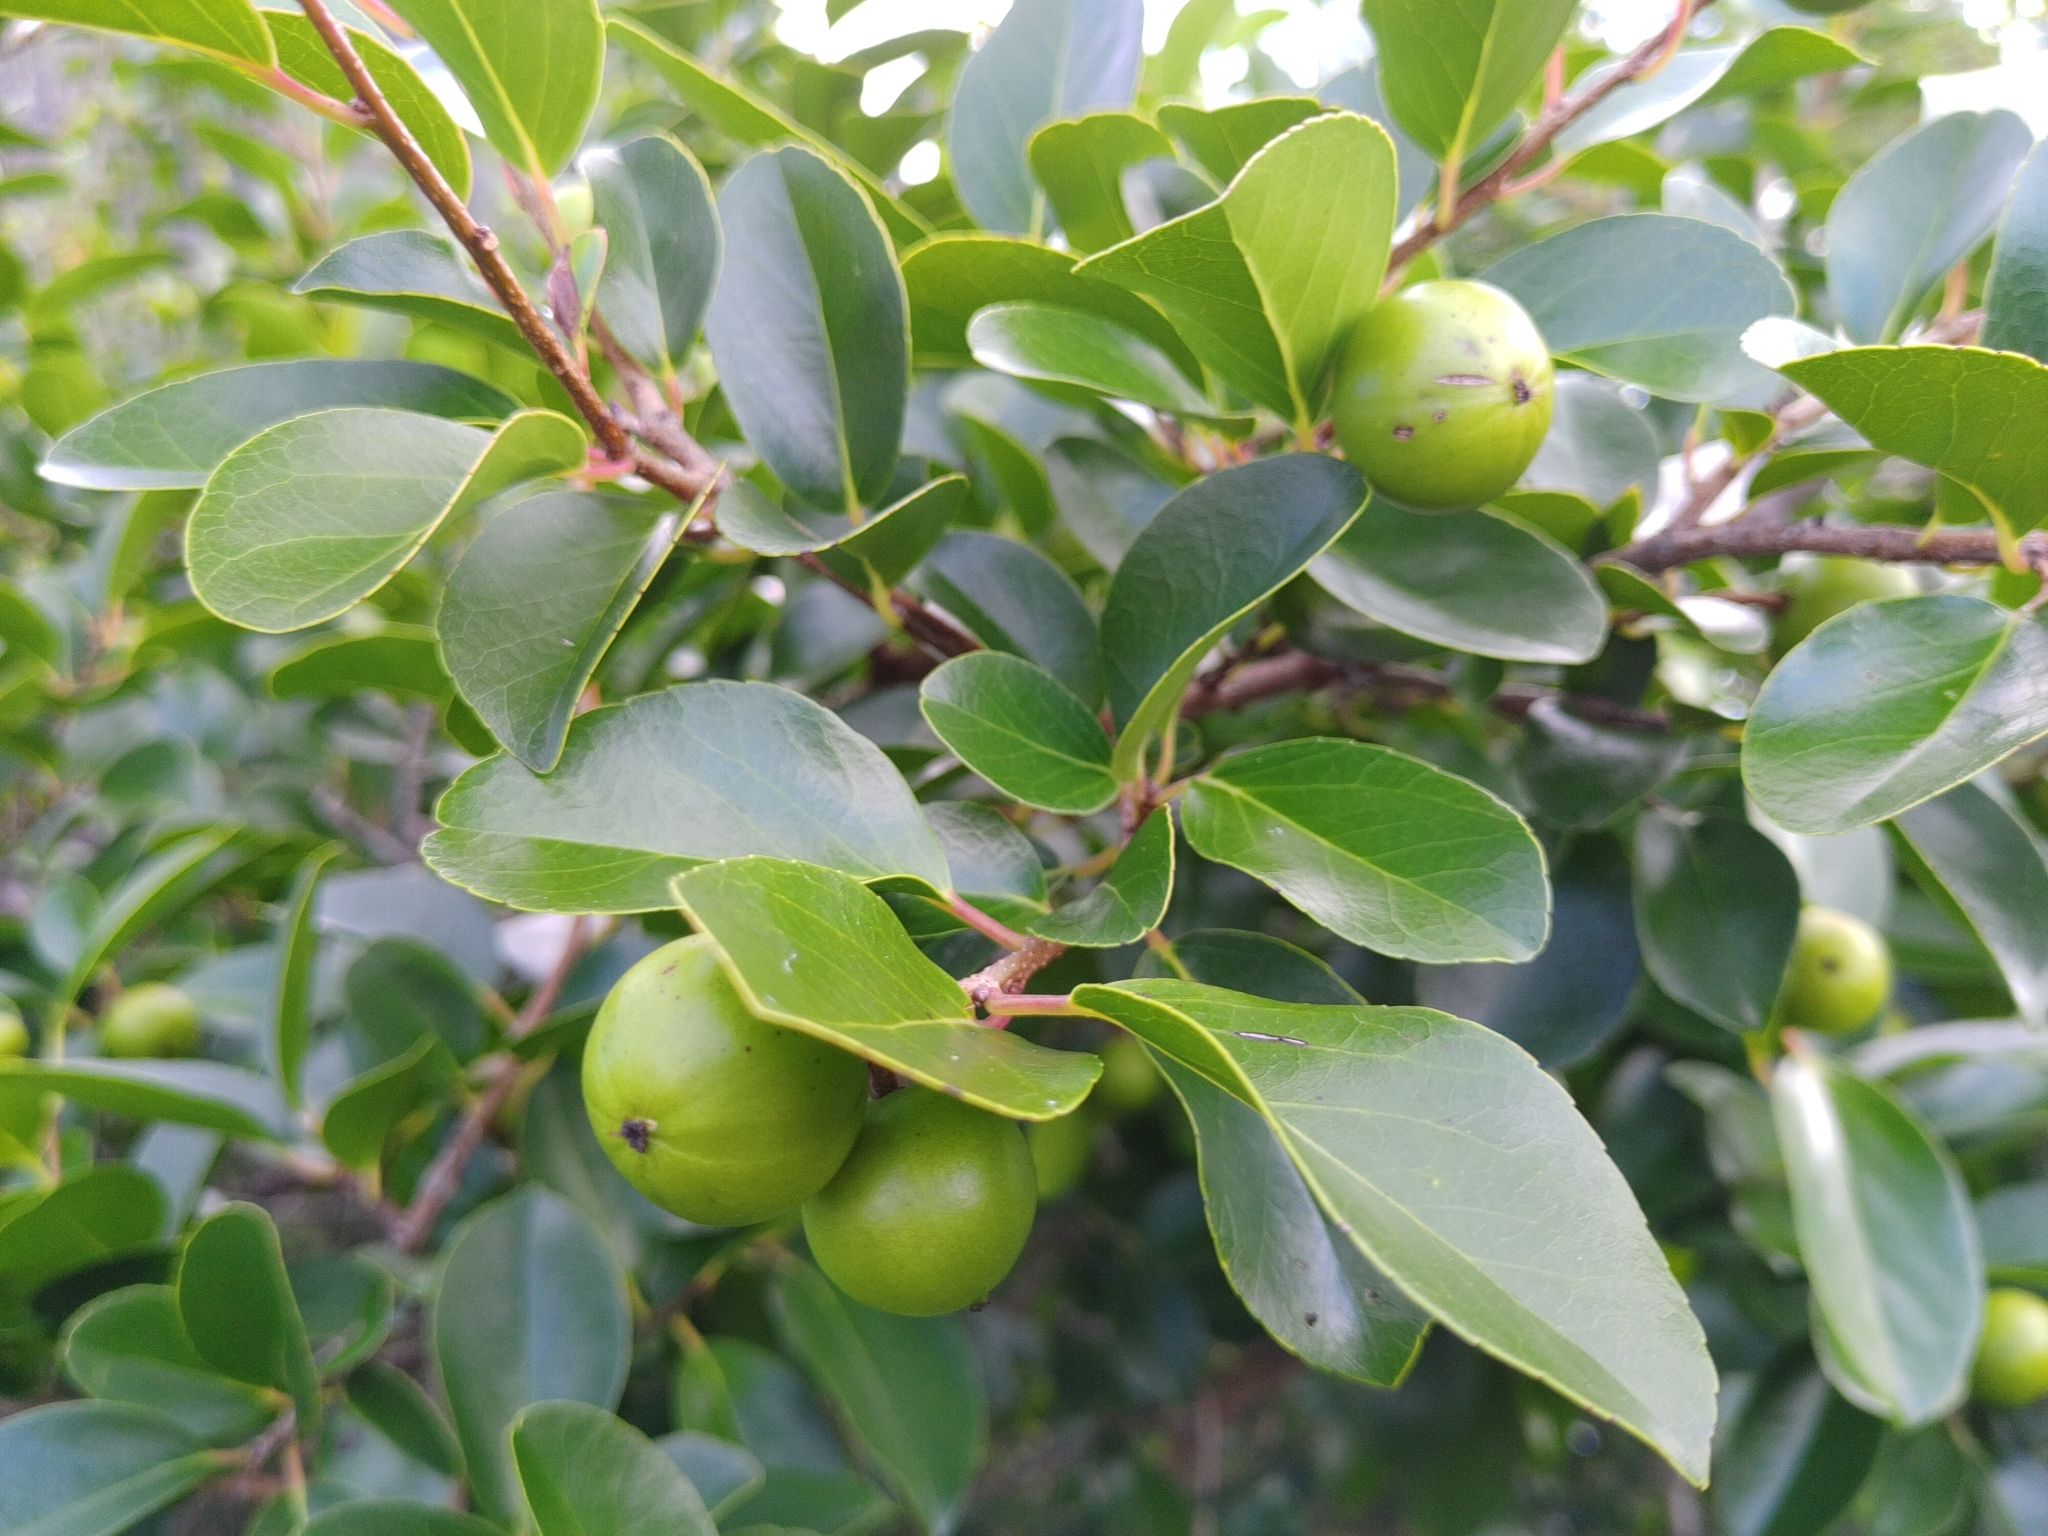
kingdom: Plantae
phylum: Tracheophyta
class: Magnoliopsida
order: Malpighiales
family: Salicaceae
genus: Flacourtia
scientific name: Flacourtia indica
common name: Governor's plum
